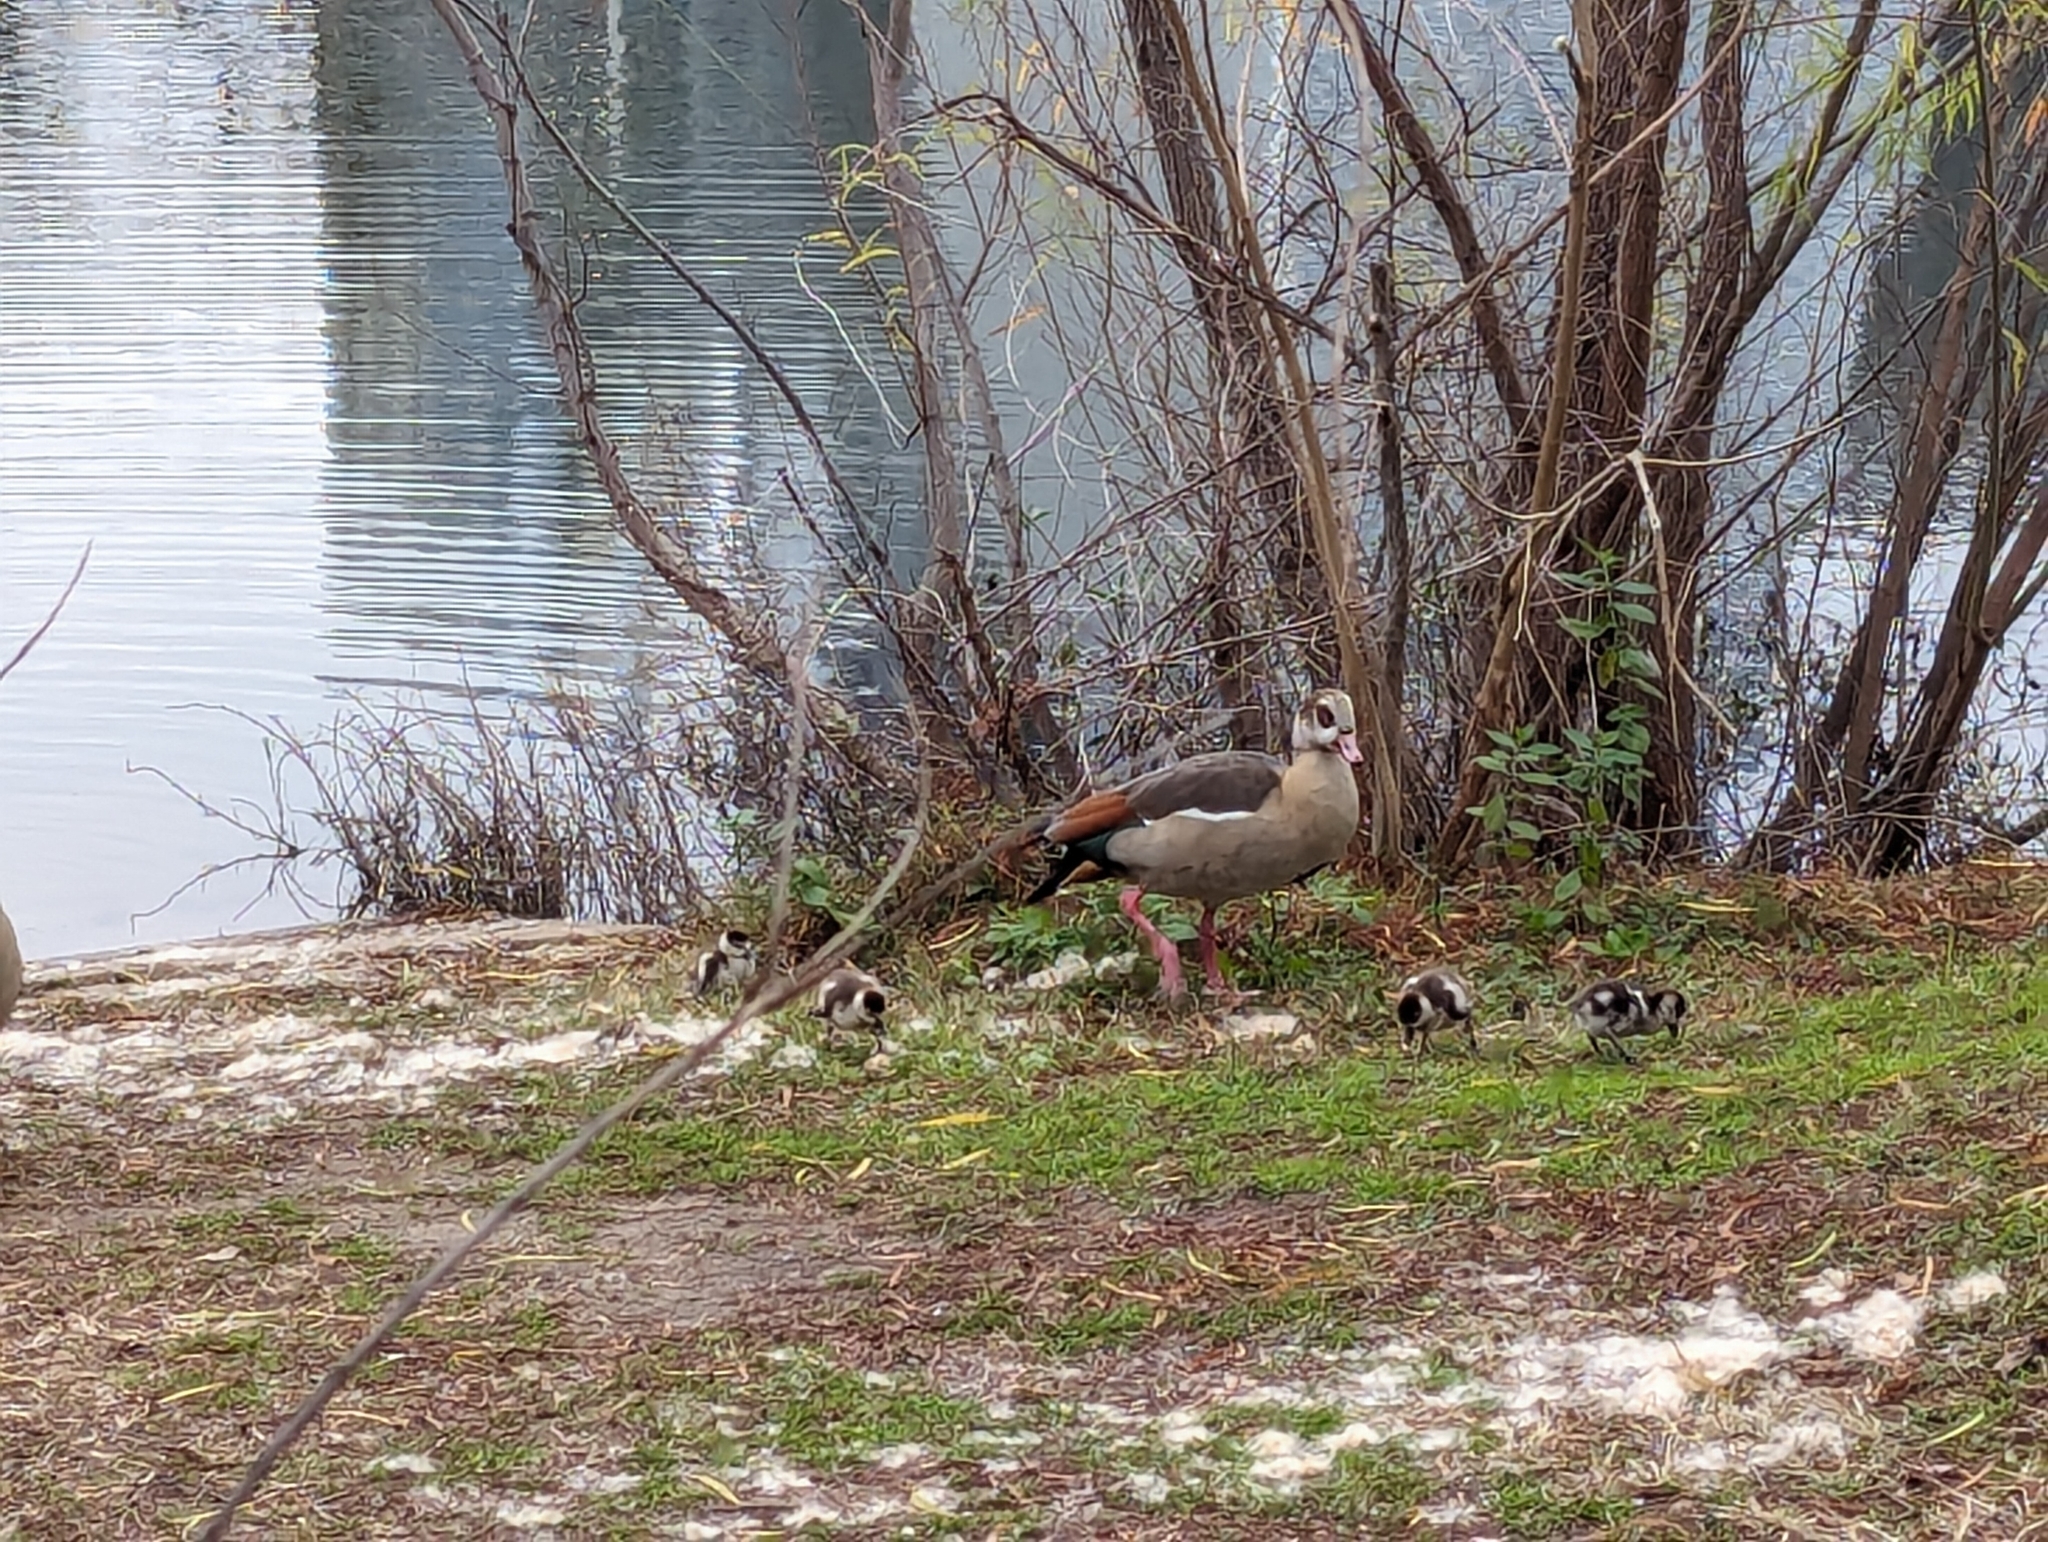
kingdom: Animalia
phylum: Chordata
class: Aves
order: Anseriformes
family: Anatidae
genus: Alopochen
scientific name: Alopochen aegyptiaca
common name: Egyptian goose
